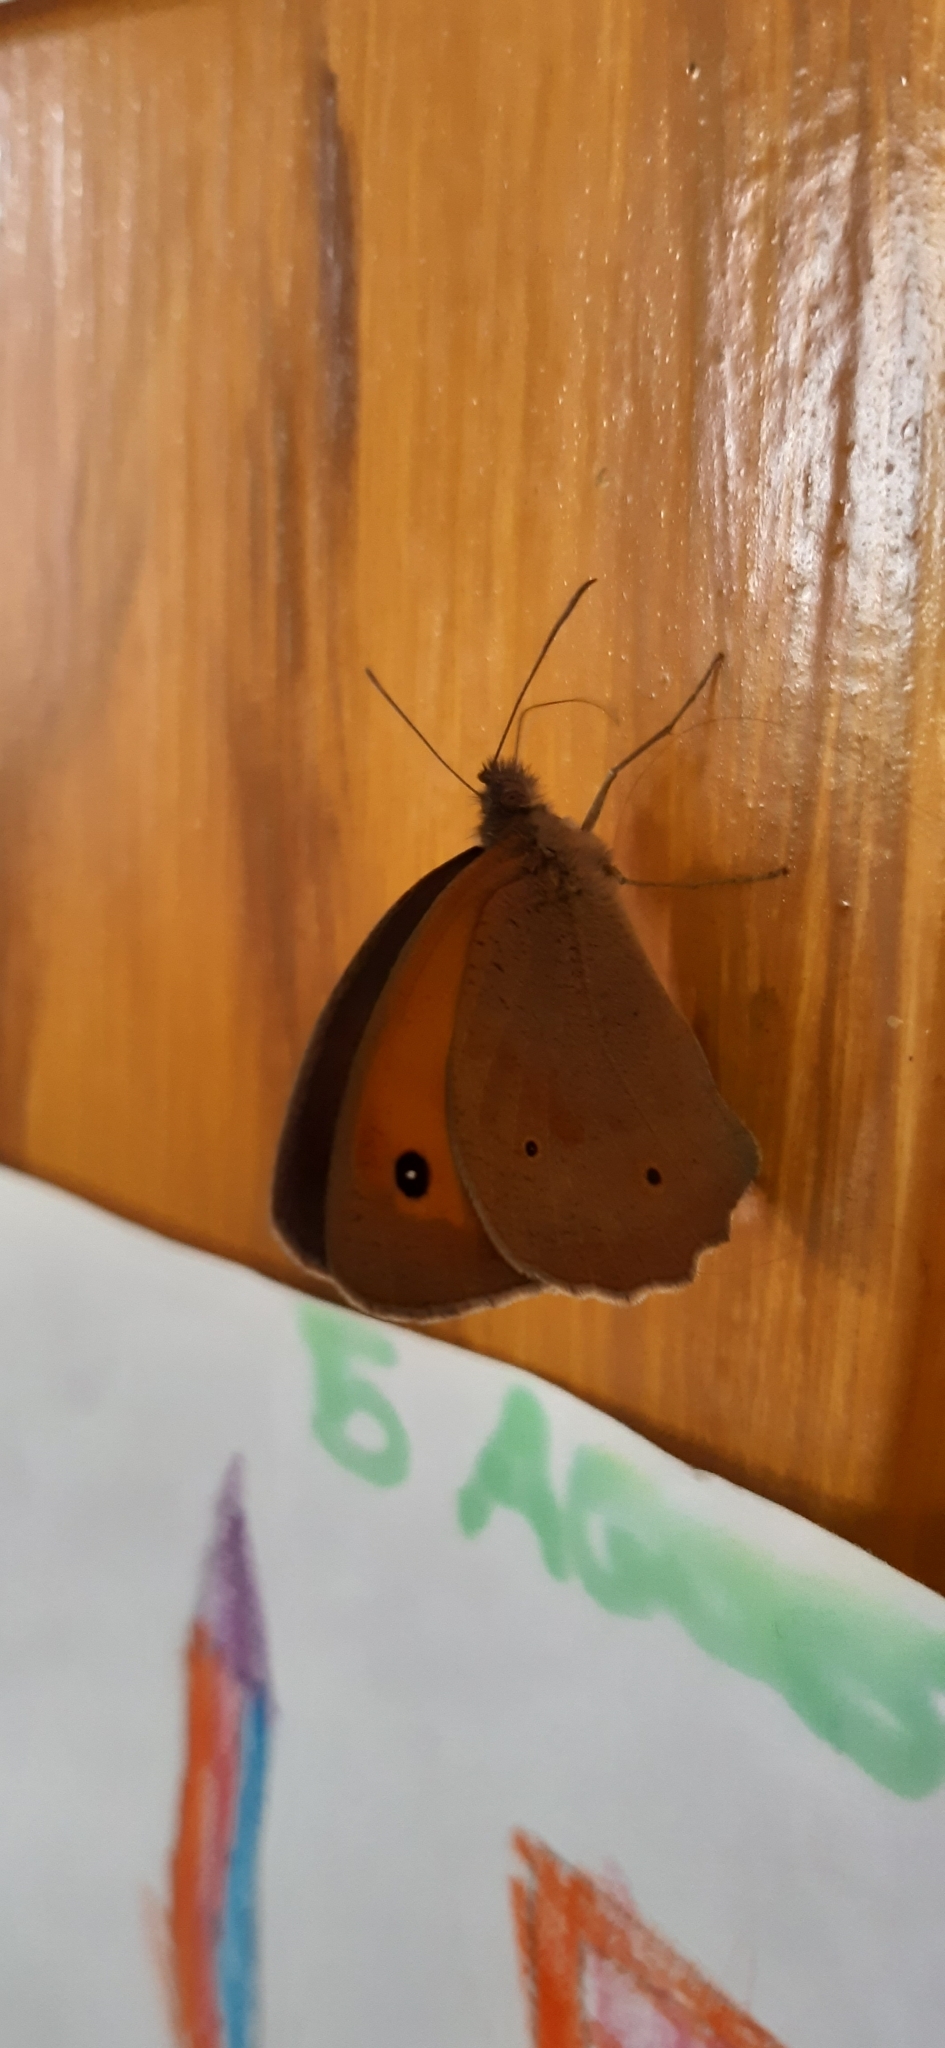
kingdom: Animalia
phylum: Arthropoda
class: Insecta
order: Lepidoptera
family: Nymphalidae
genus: Maniola
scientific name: Maniola jurtina
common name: Meadow brown
